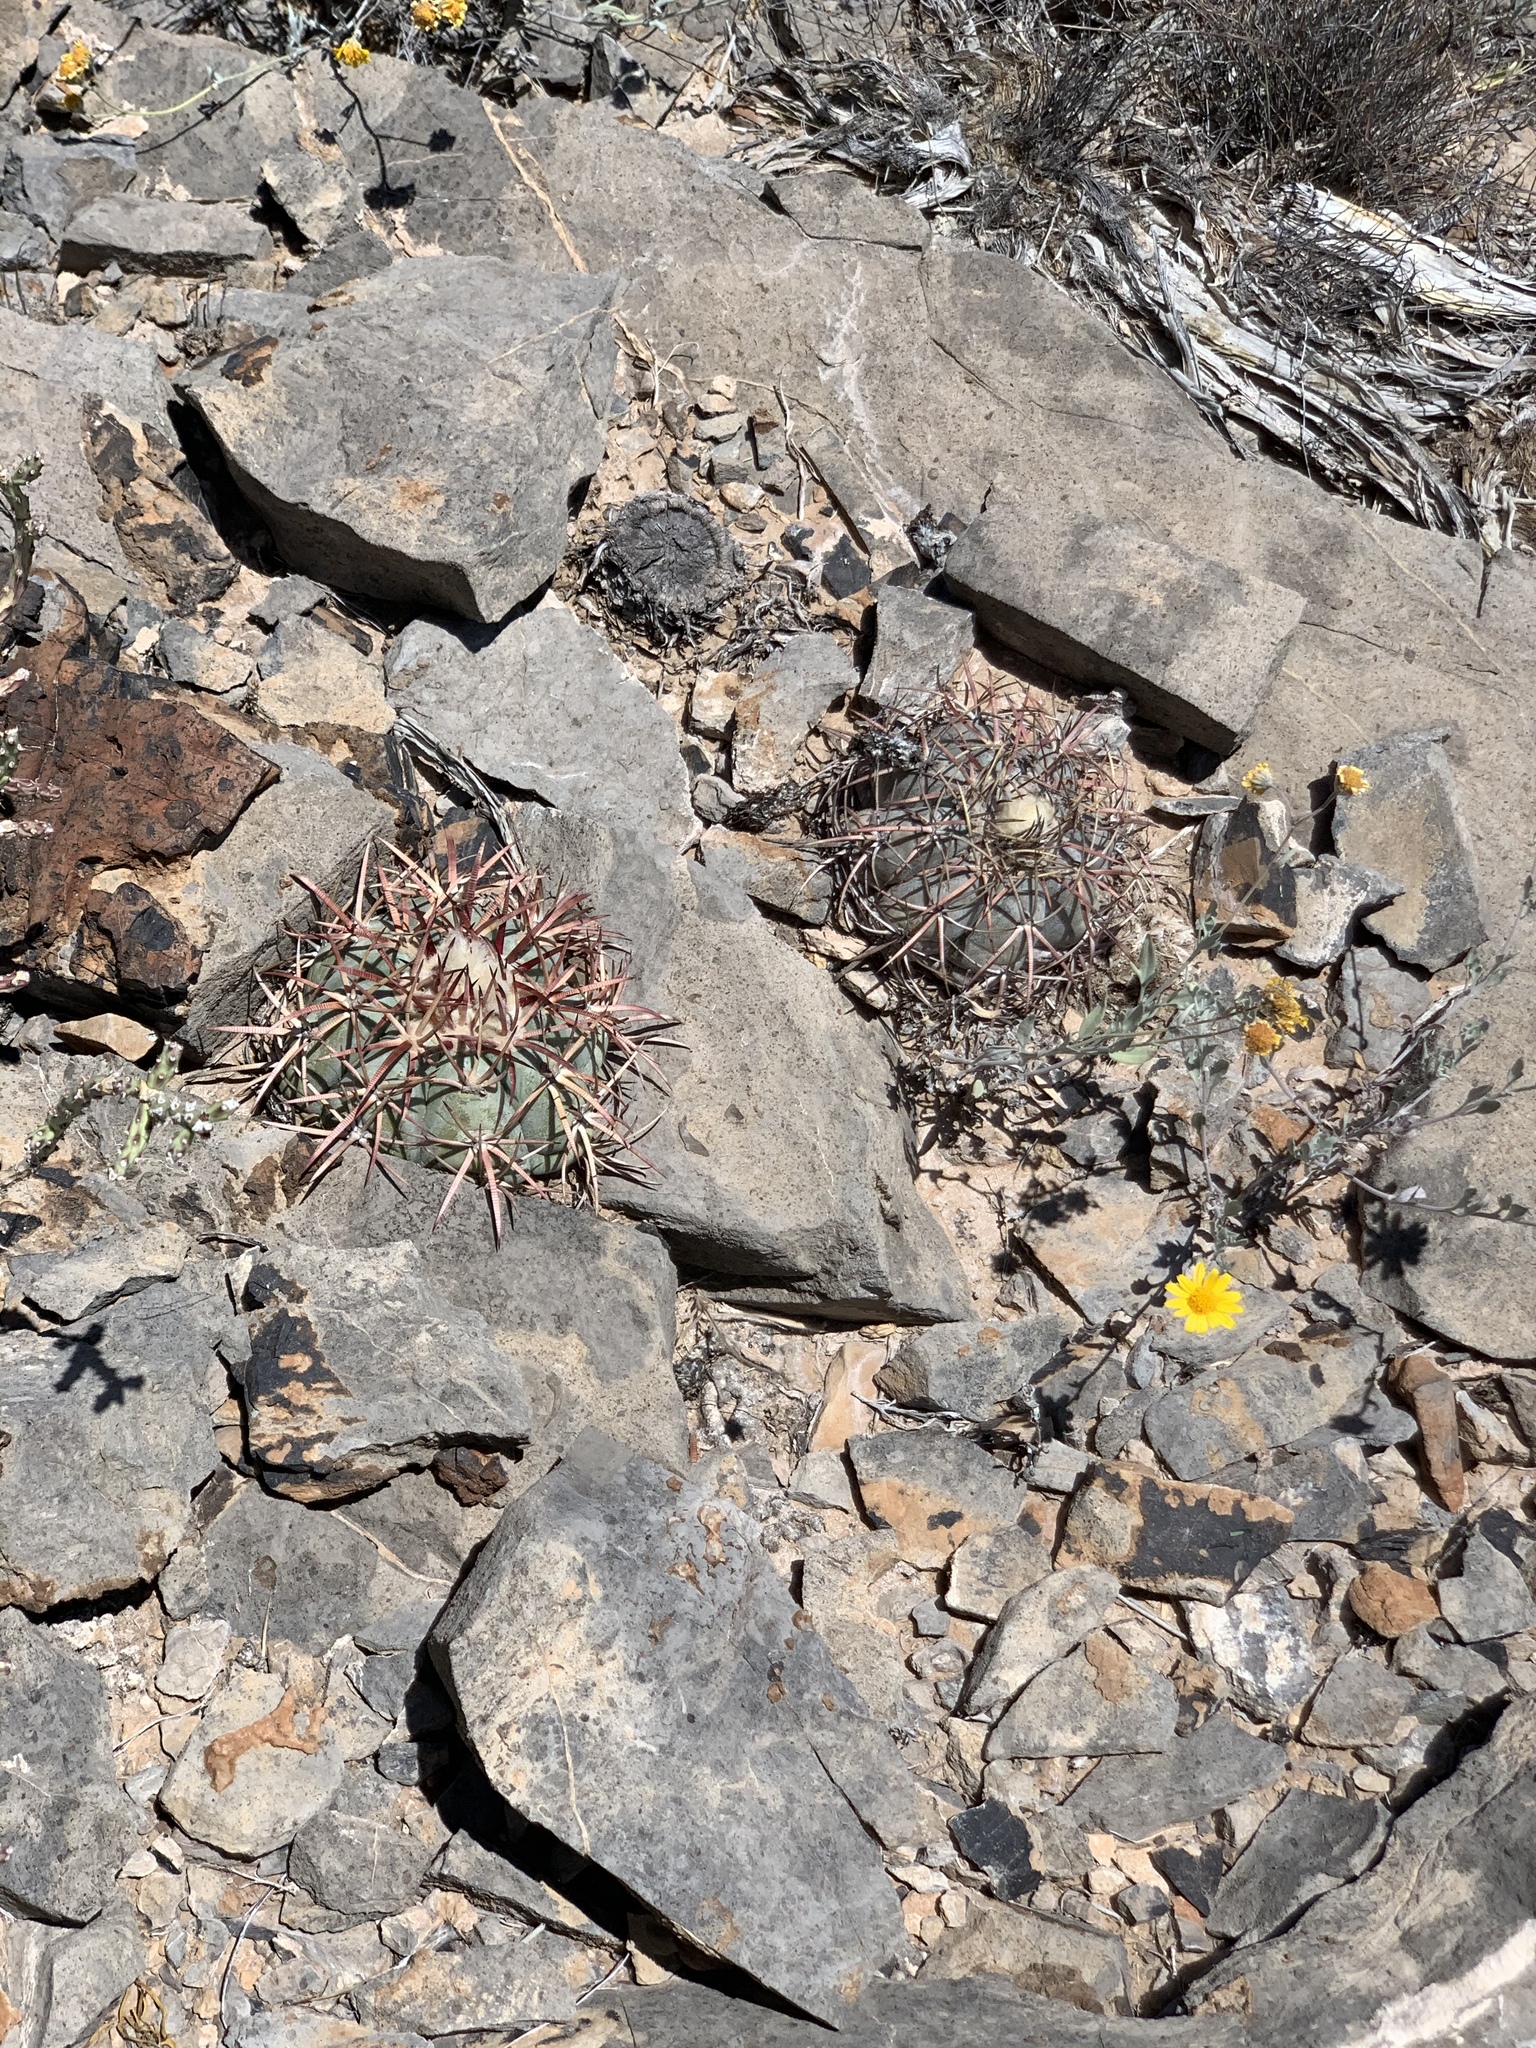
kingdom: Plantae
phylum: Tracheophyta
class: Magnoliopsida
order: Caryophyllales
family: Cactaceae
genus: Echinocactus
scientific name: Echinocactus horizonthalonius
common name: Devilshead
